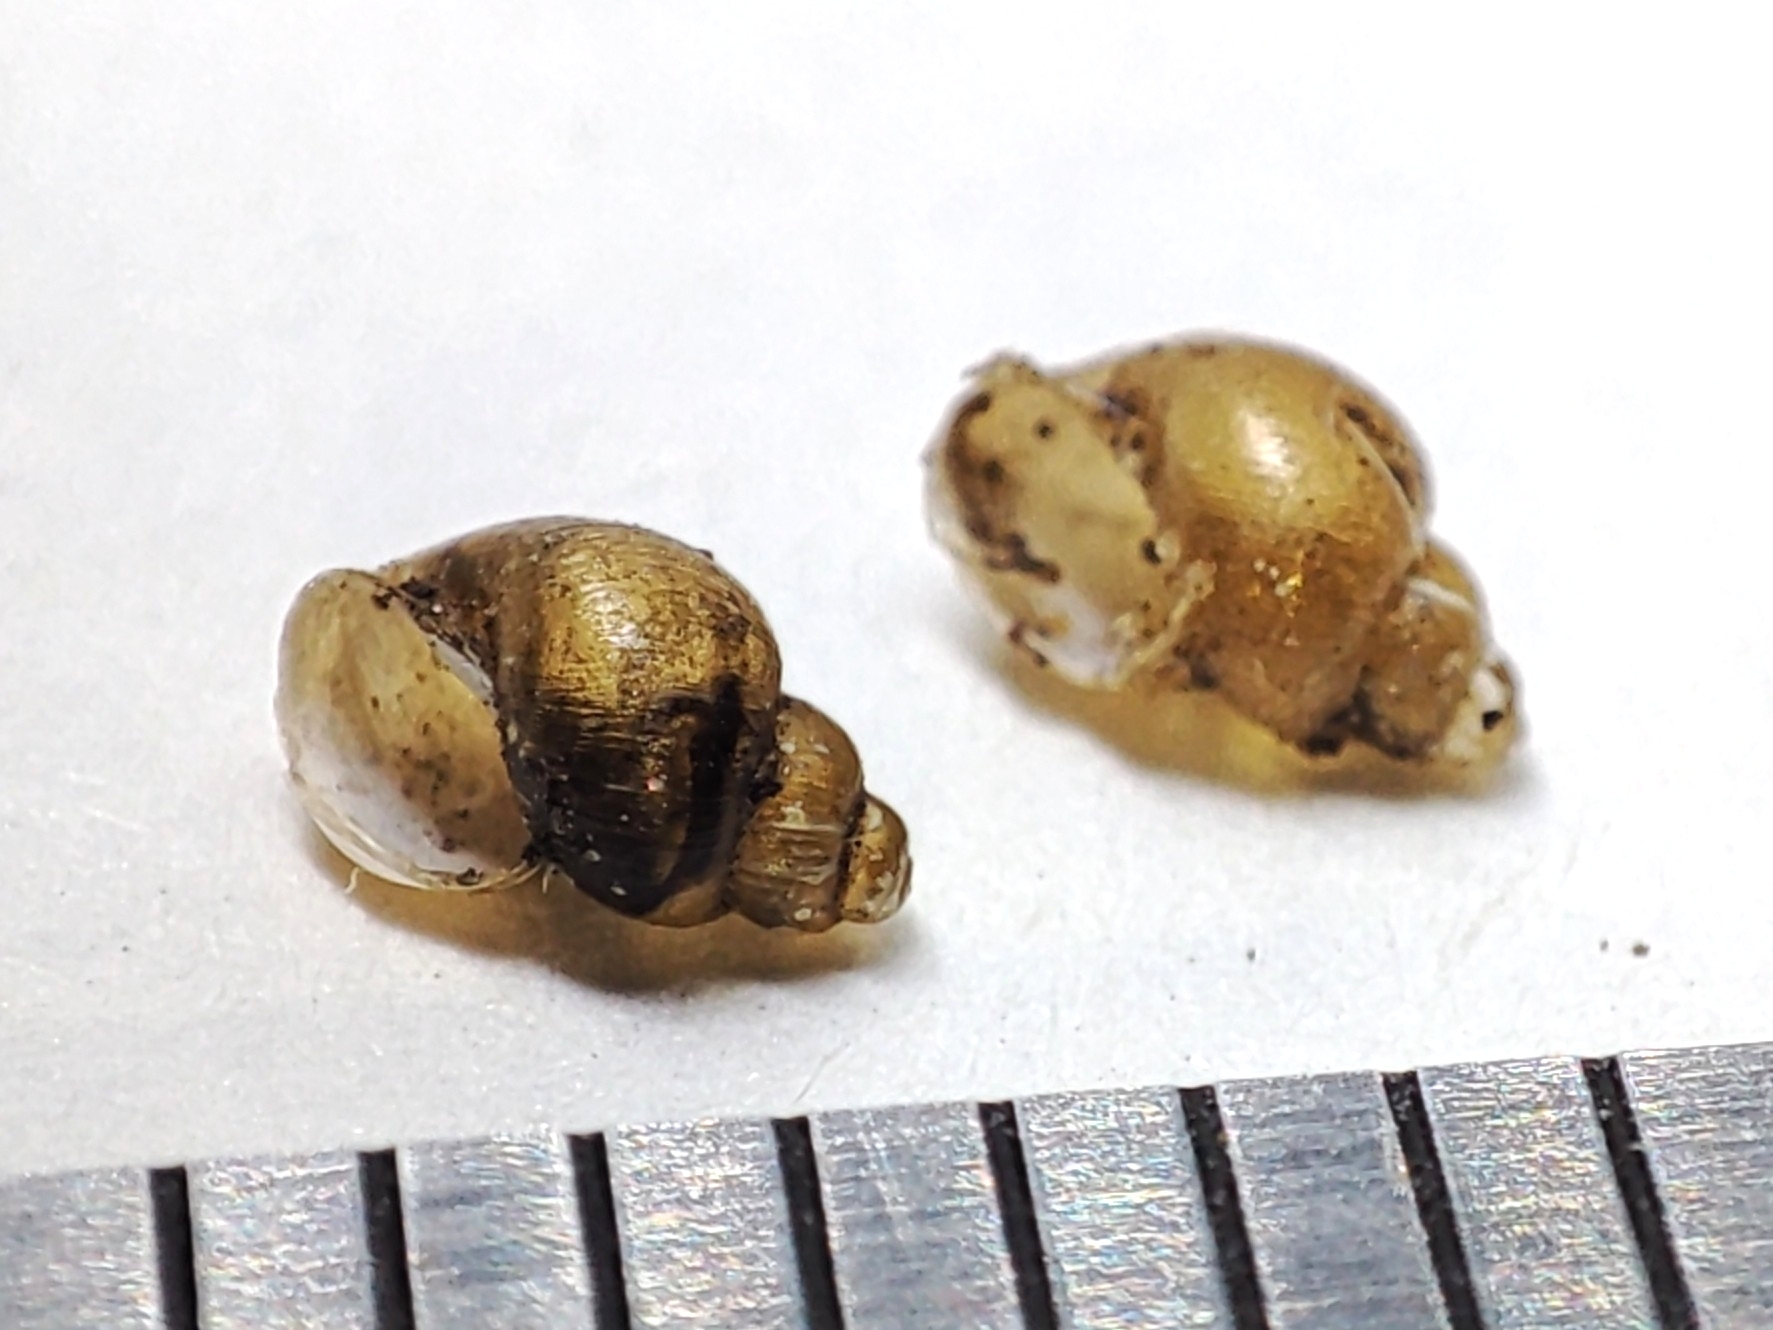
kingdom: Animalia
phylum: Mollusca
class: Gastropoda
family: Lymnaeidae
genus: Galba
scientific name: Galba truncatula
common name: Dwarf pond snail
